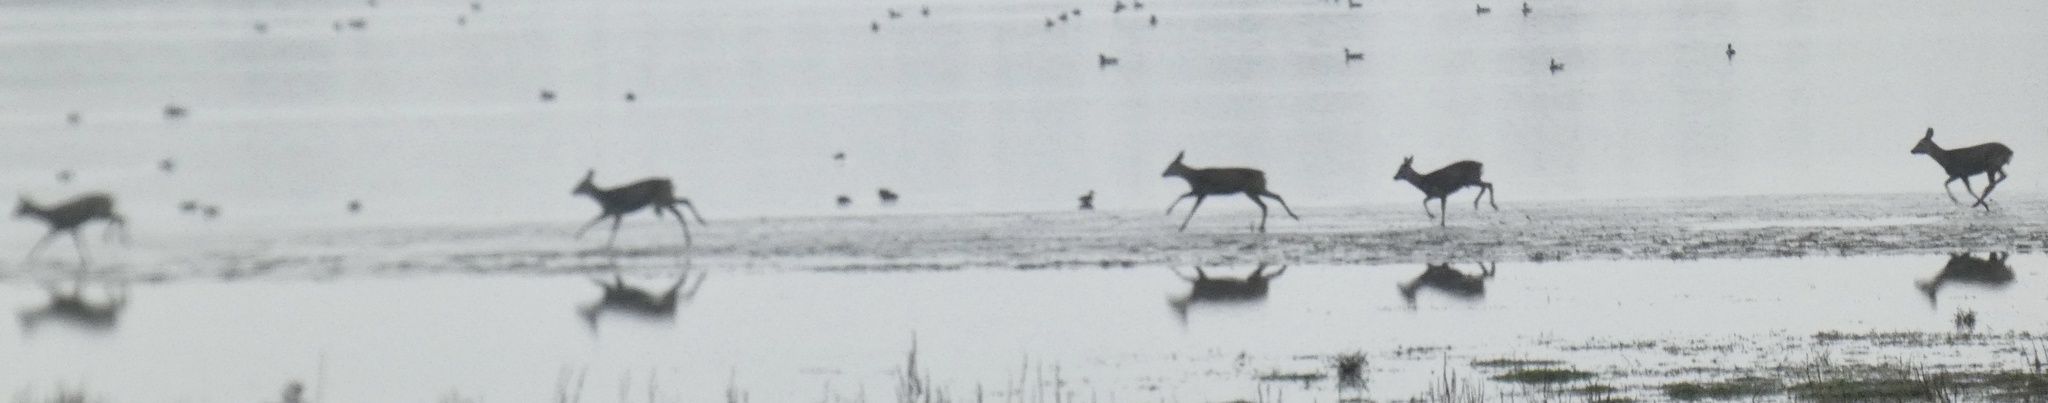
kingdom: Animalia
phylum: Chordata
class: Mammalia
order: Artiodactyla
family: Cervidae
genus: Capreolus
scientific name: Capreolus capreolus
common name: Western roe deer
